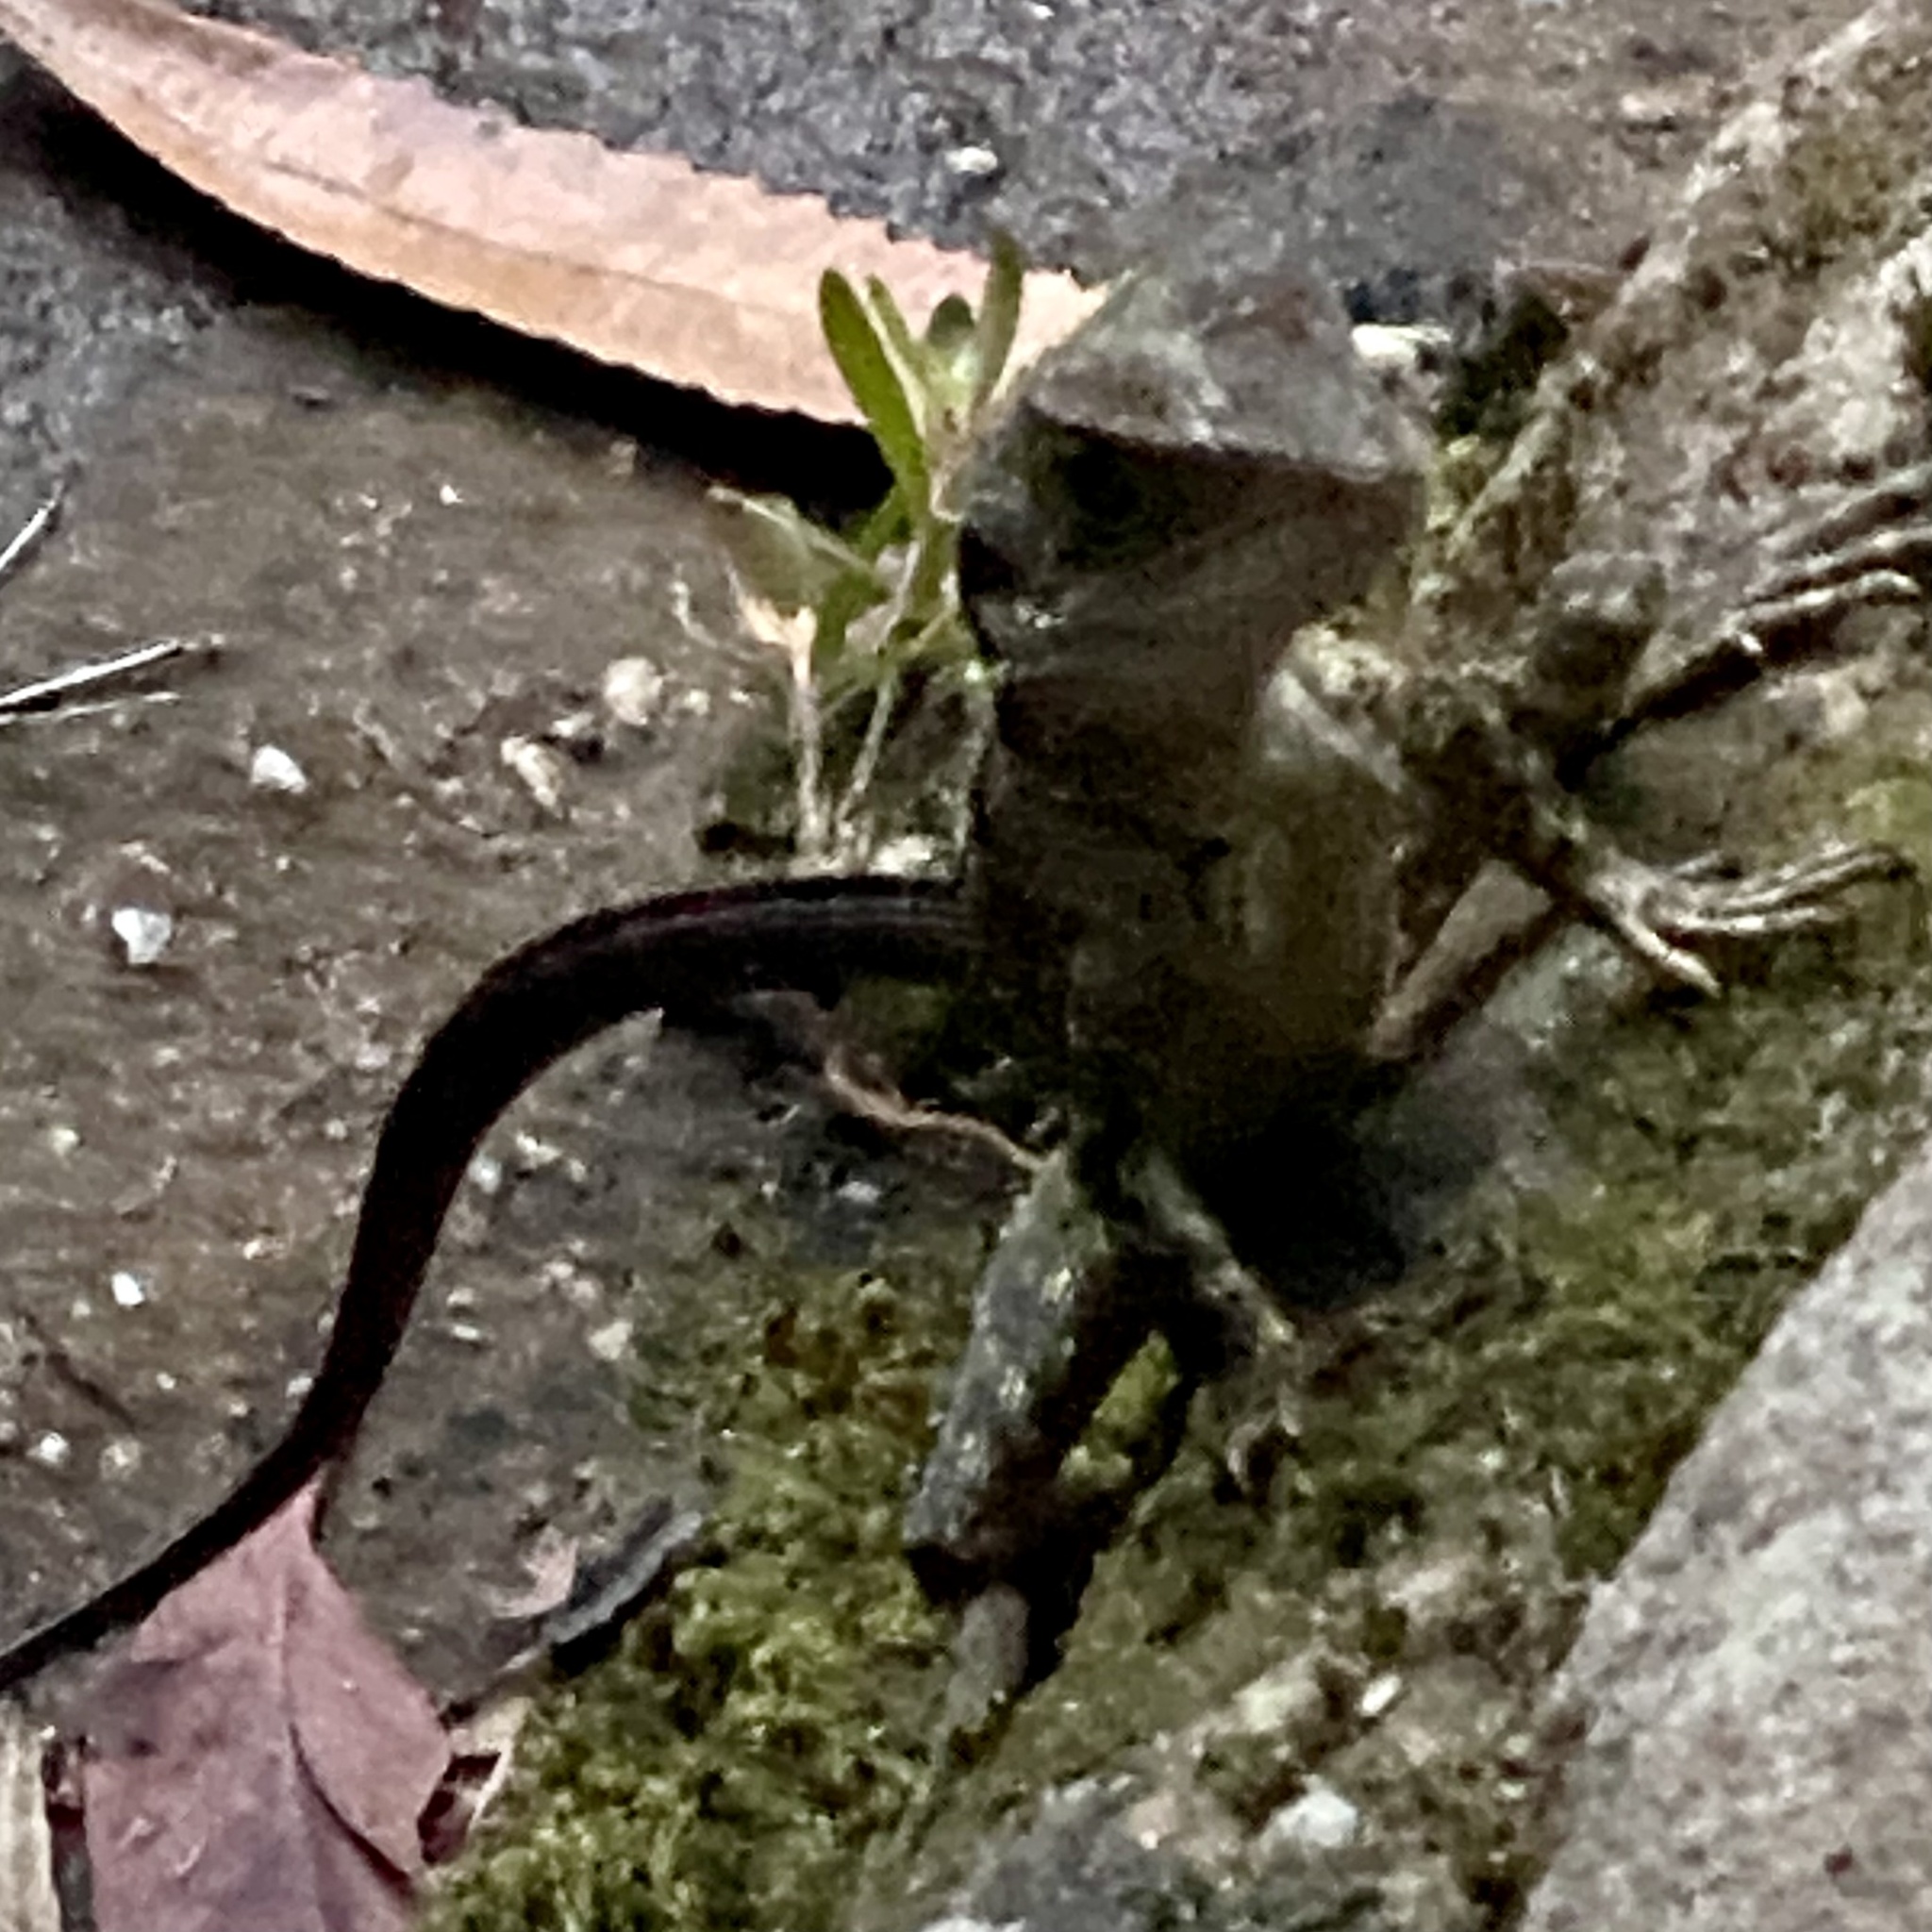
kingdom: Animalia
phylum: Chordata
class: Squamata
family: Agamidae
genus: Intellagama
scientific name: Intellagama lesueurii
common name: Eastern water dragon
